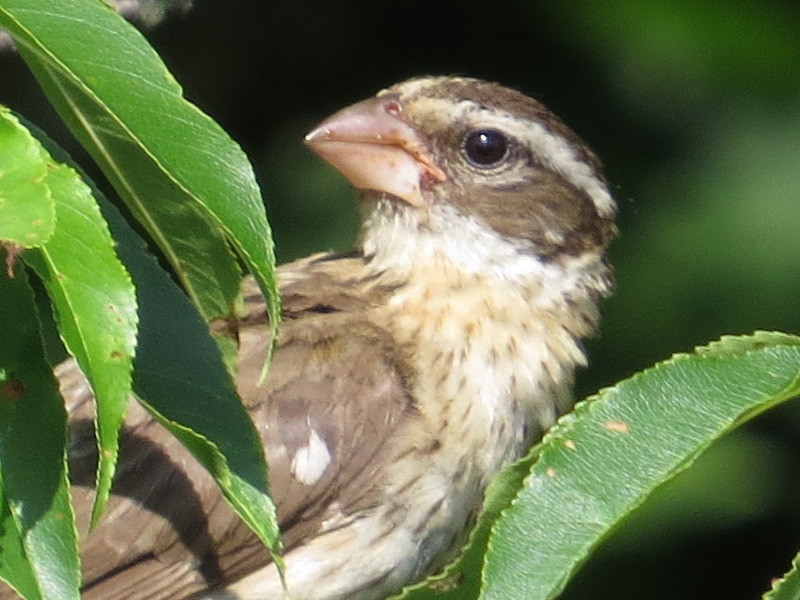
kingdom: Animalia
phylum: Chordata
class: Aves
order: Passeriformes
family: Cardinalidae
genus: Pheucticus
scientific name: Pheucticus ludovicianus
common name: Rose-breasted grosbeak
